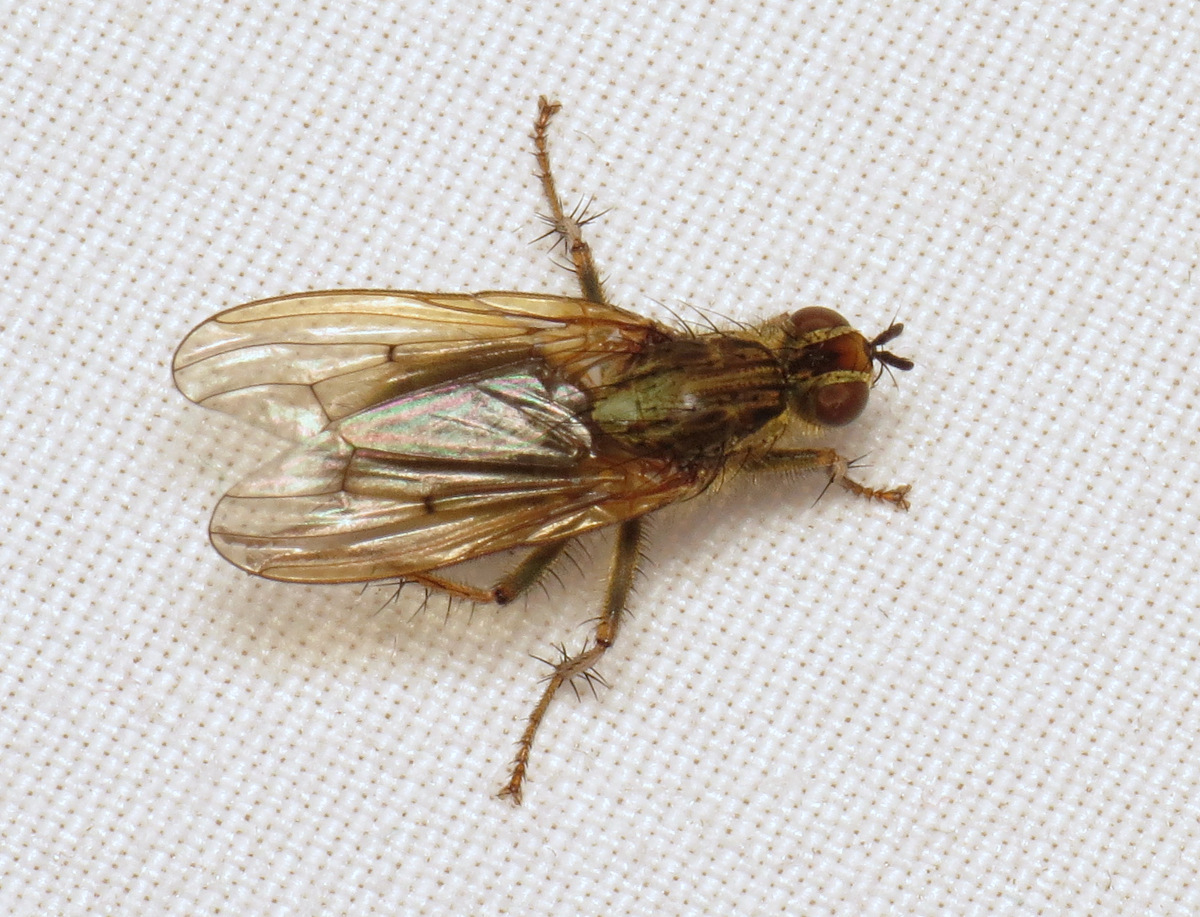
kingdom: Animalia
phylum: Arthropoda
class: Insecta
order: Diptera
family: Scathophagidae
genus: Scathophaga
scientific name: Scathophaga stercoraria
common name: Yellow dung fly
